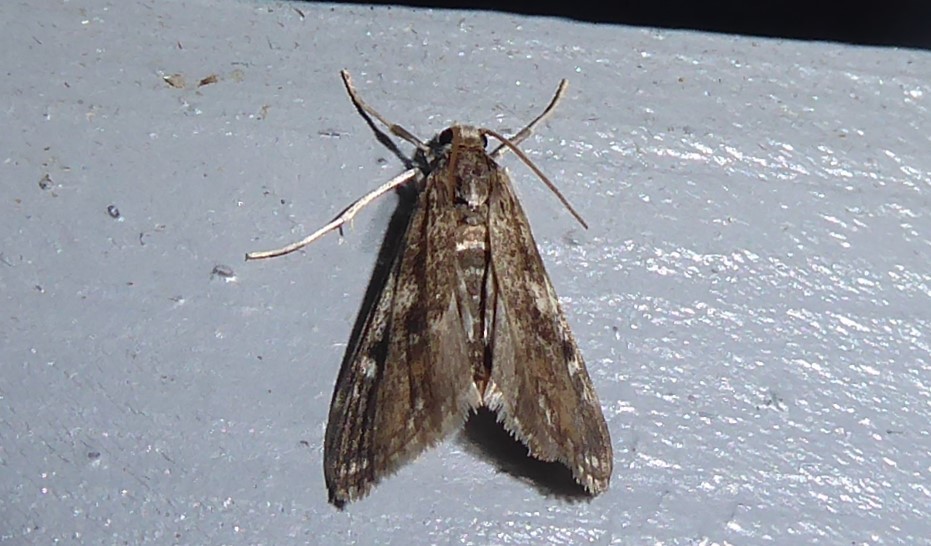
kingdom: Animalia
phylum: Arthropoda
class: Insecta
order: Lepidoptera
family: Crambidae
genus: Hygraula
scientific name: Hygraula nitens
